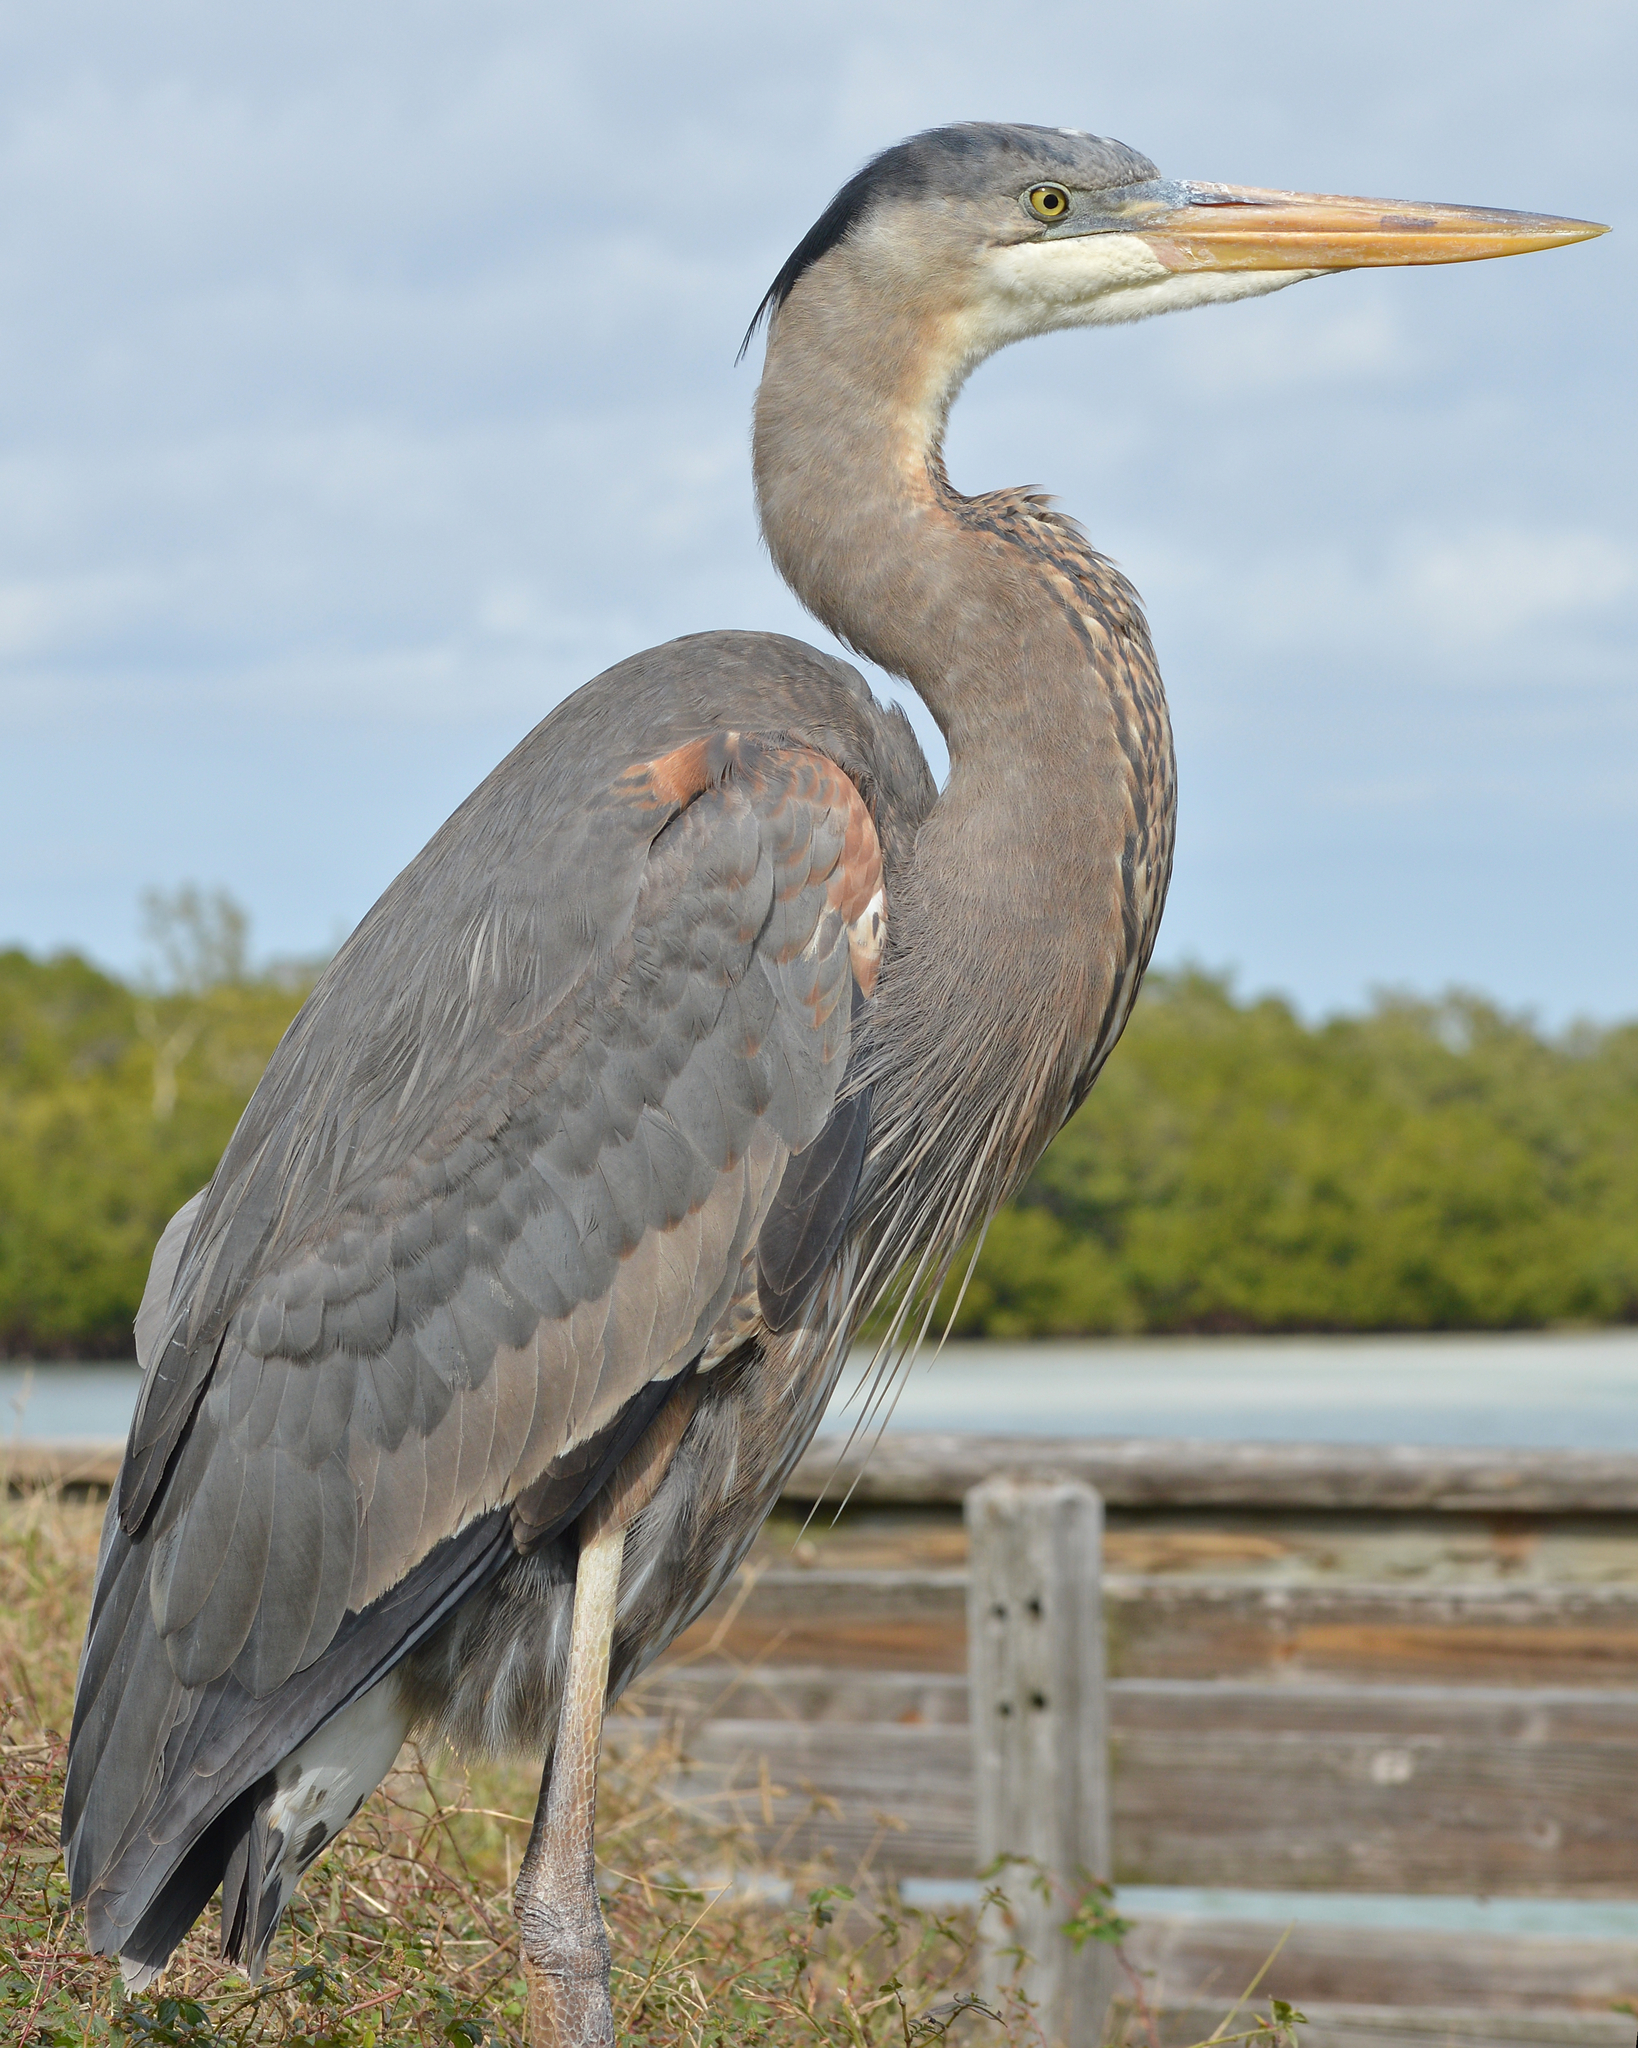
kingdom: Animalia
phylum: Chordata
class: Aves
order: Pelecaniformes
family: Ardeidae
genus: Ardea
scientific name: Ardea herodias
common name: Great blue heron
